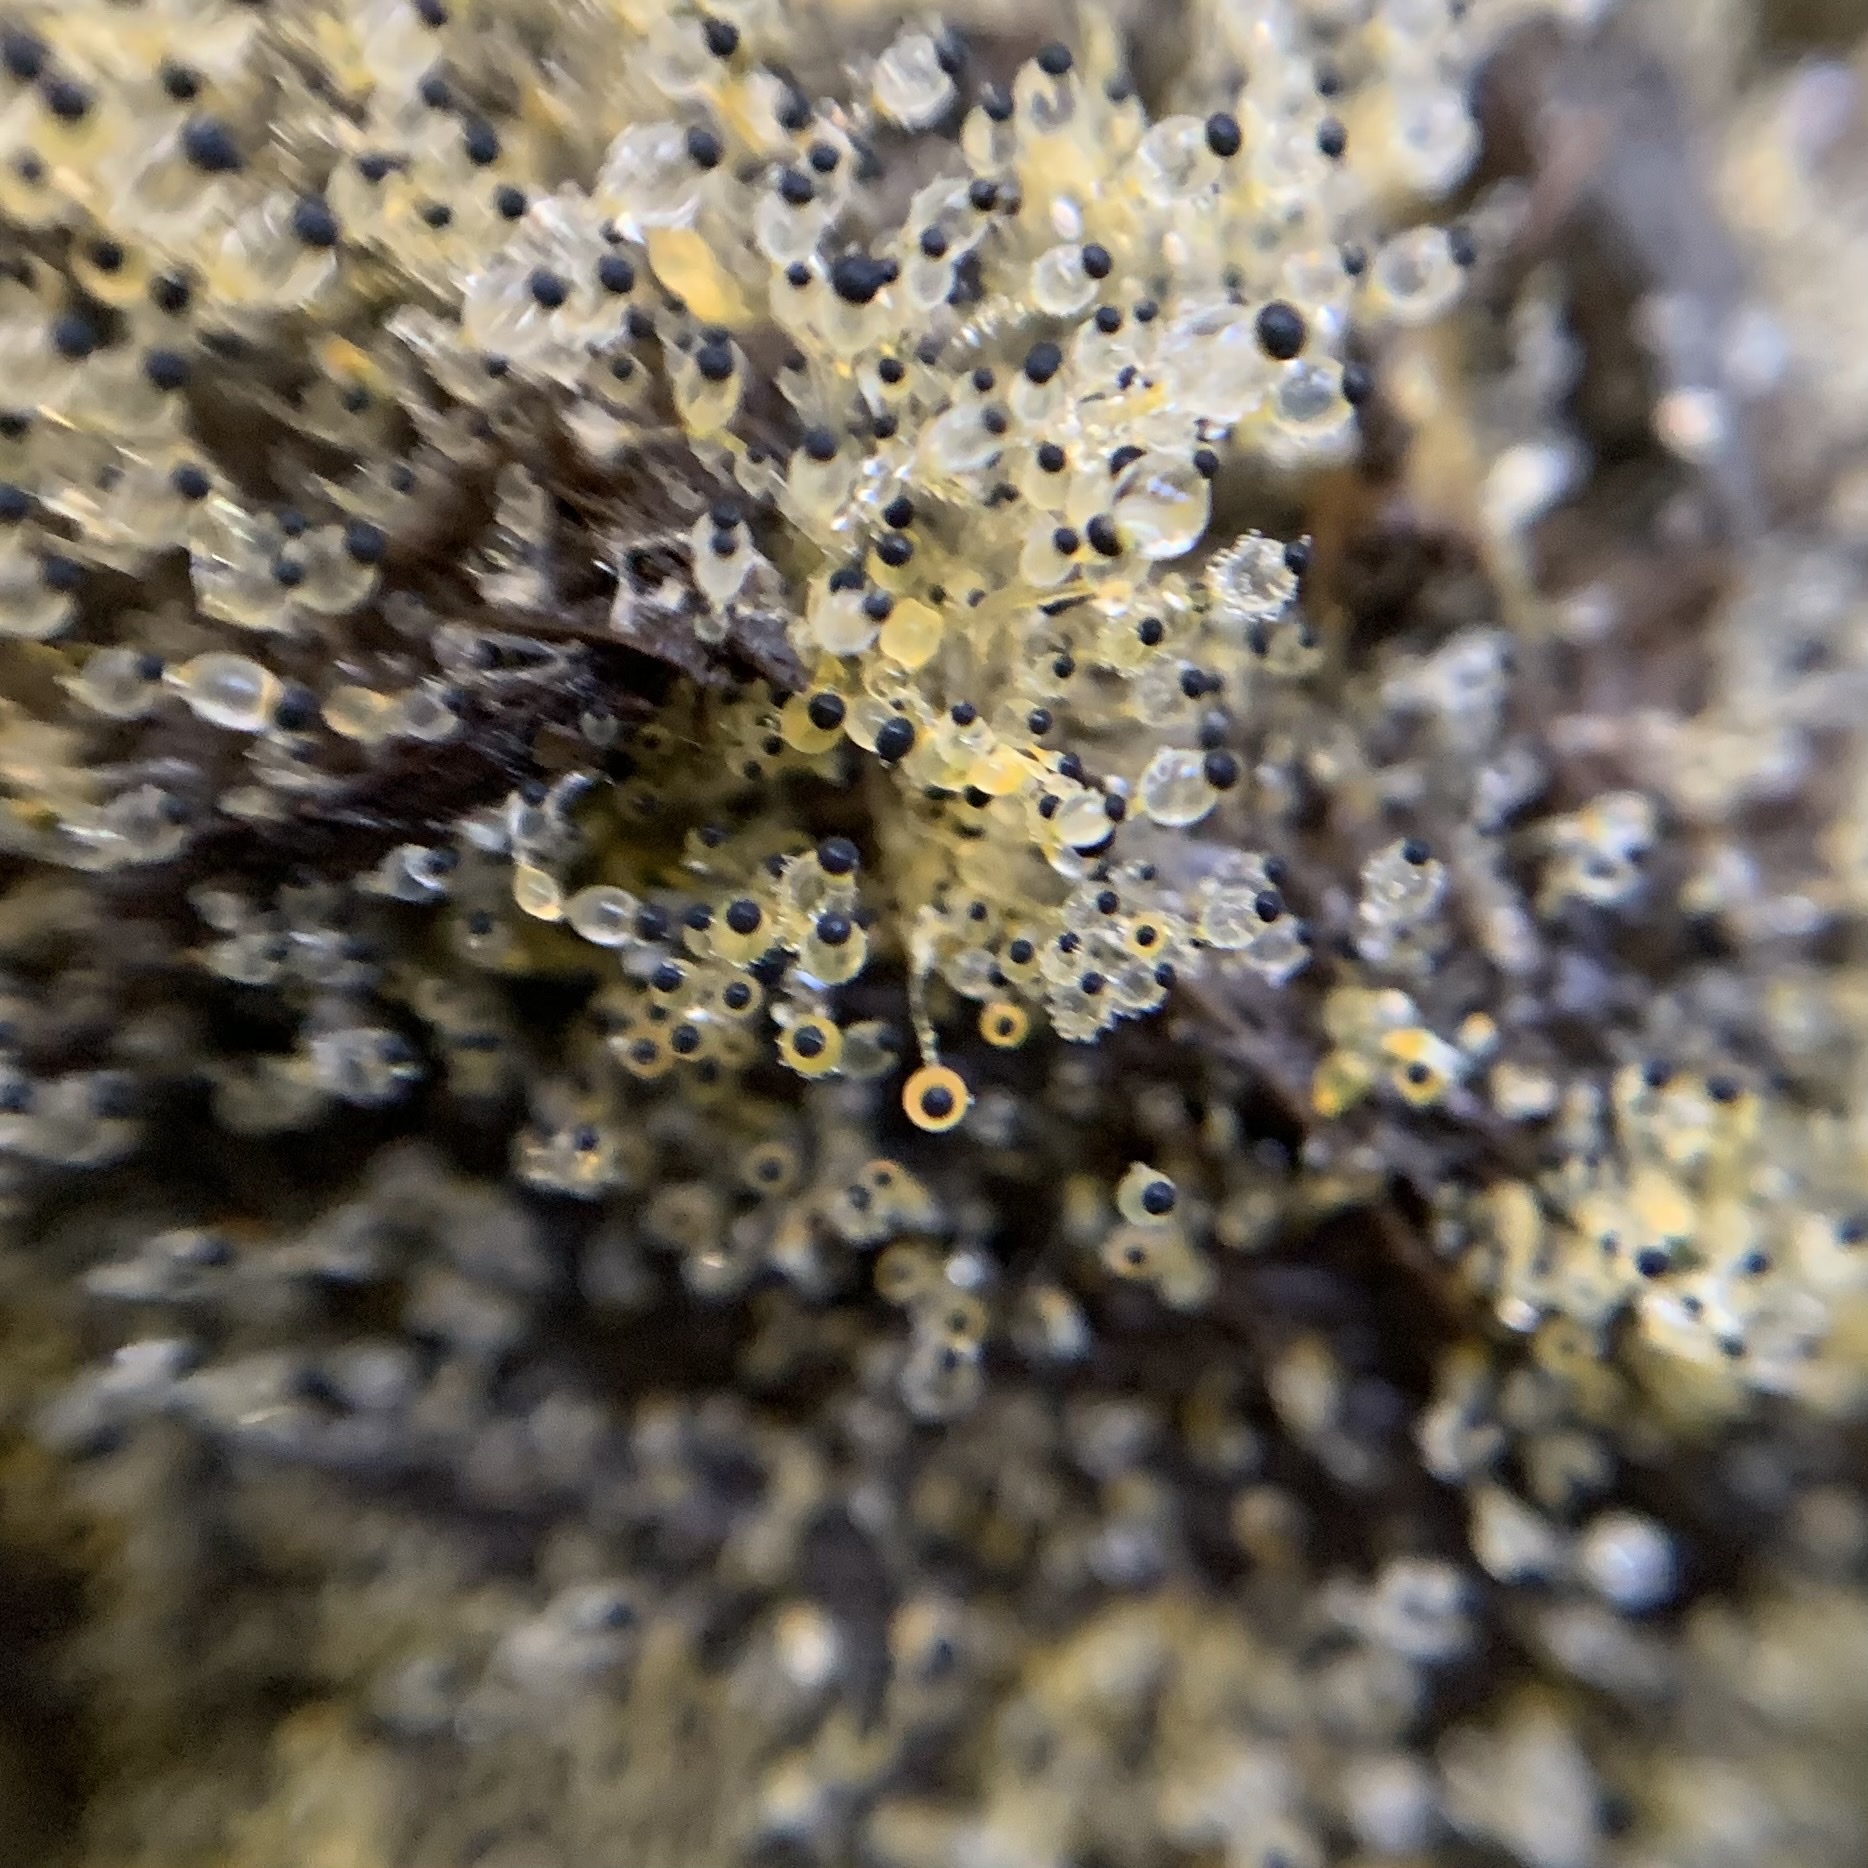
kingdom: Fungi
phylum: Mucoromycota
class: Mucoromycetes
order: Mucorales
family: Pilobolaceae
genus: Pilobolus
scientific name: Pilobolus
